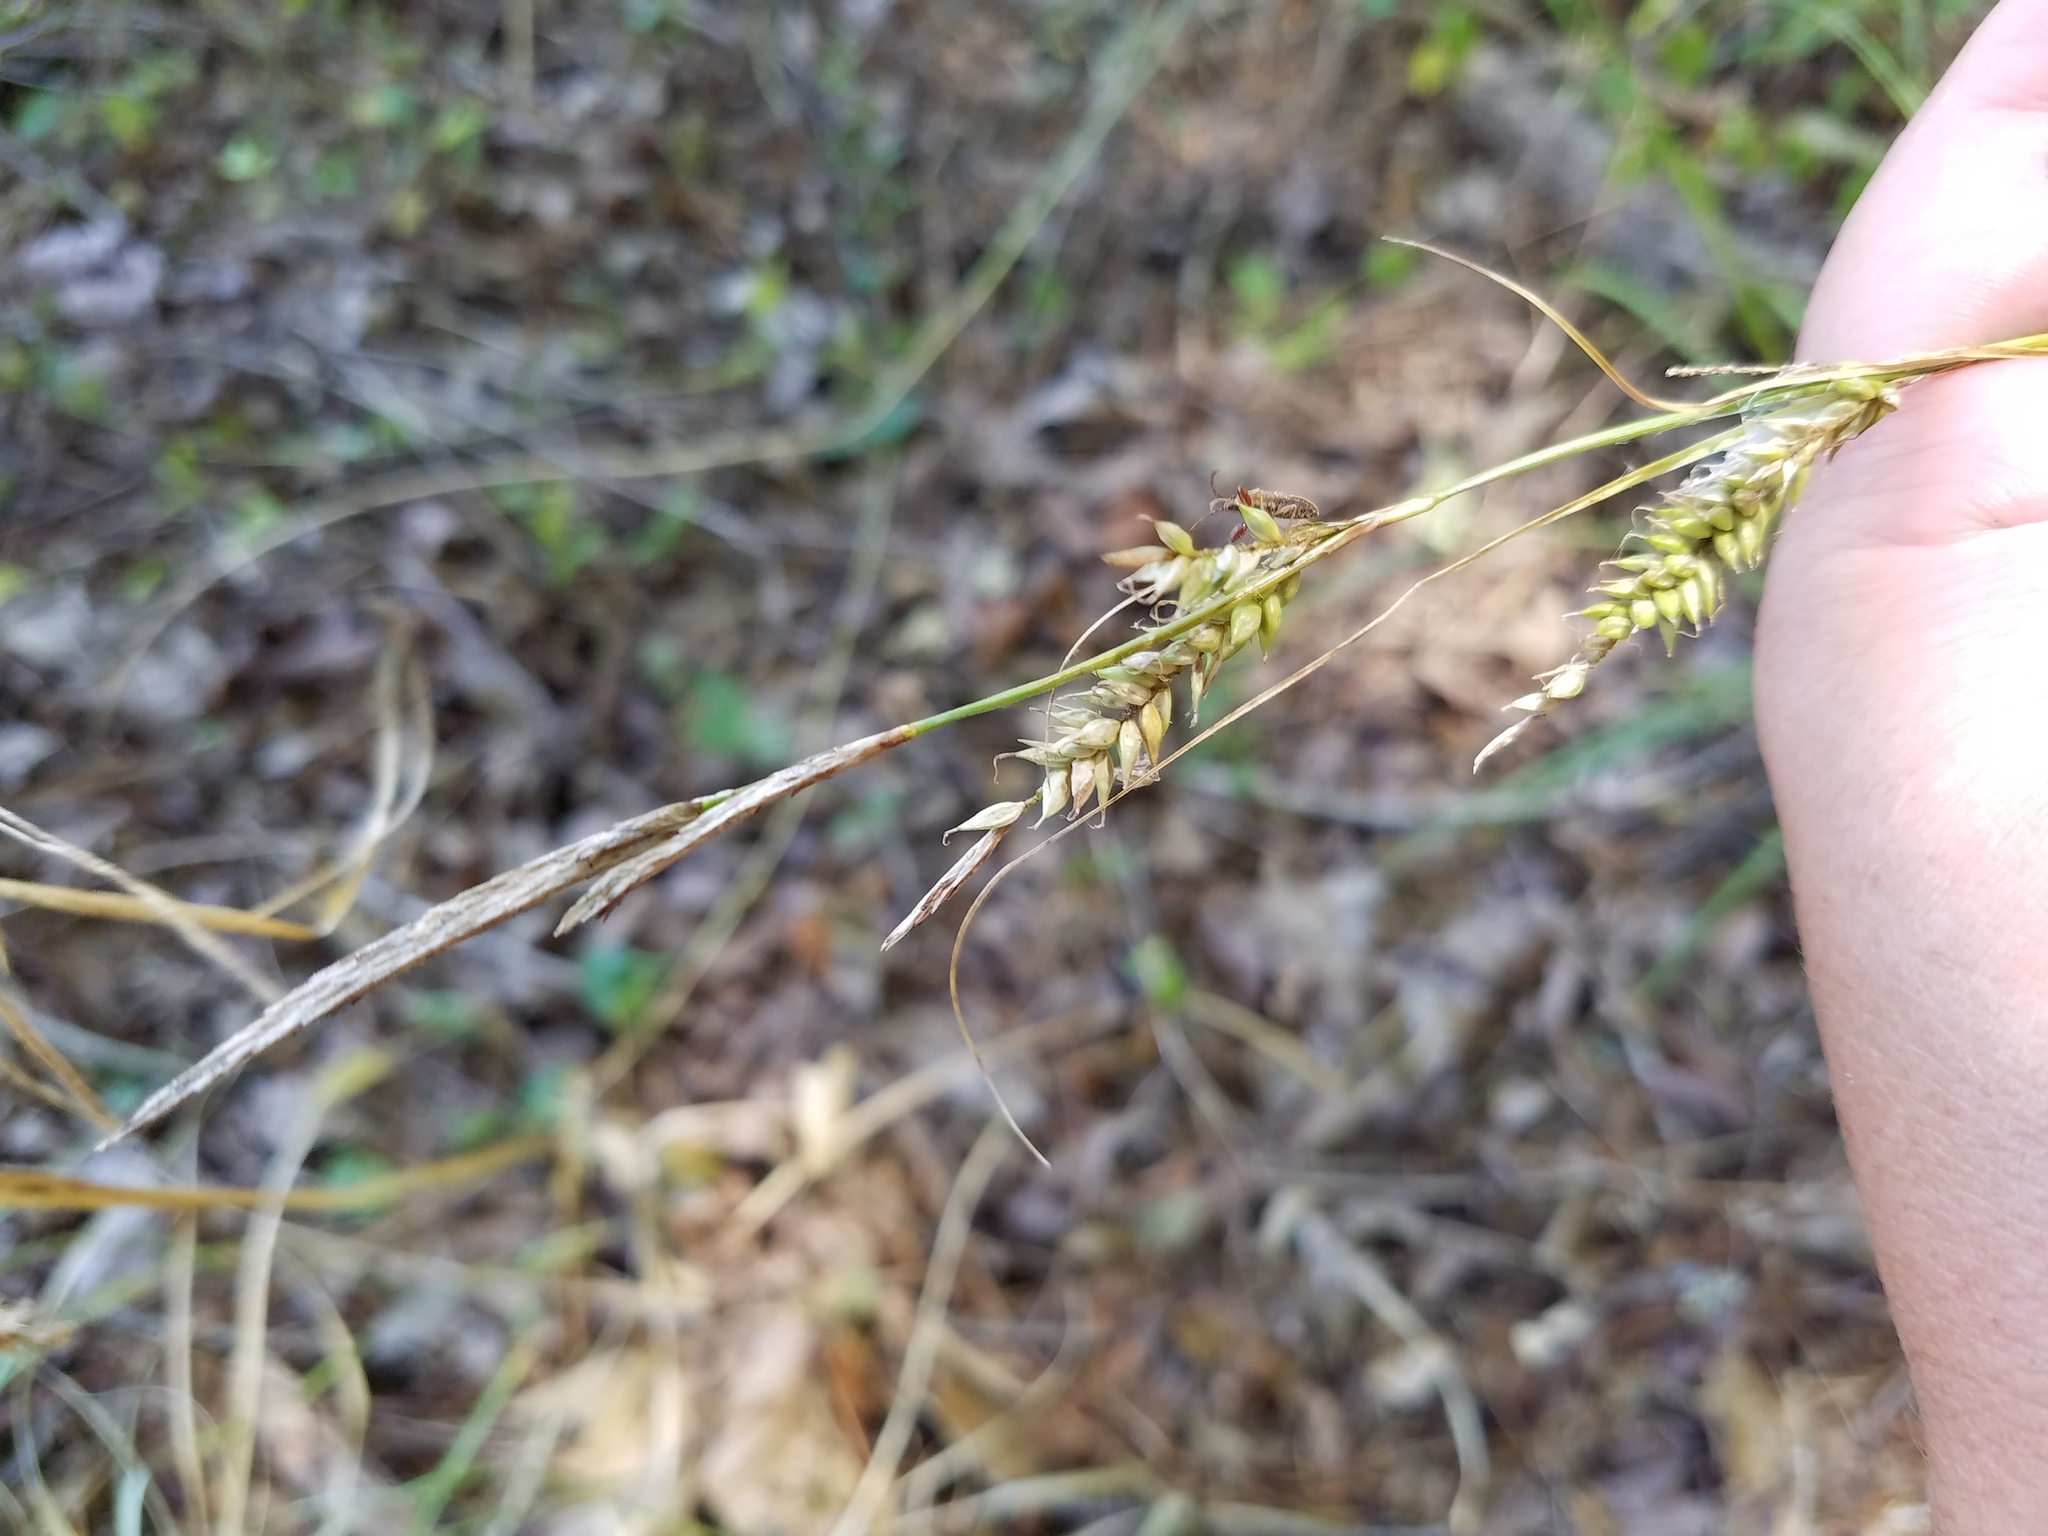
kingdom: Plantae
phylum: Tracheophyta
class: Liliopsida
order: Poales
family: Cyperaceae
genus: Carex
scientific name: Carex cherokeensis
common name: Cherokee sedge
